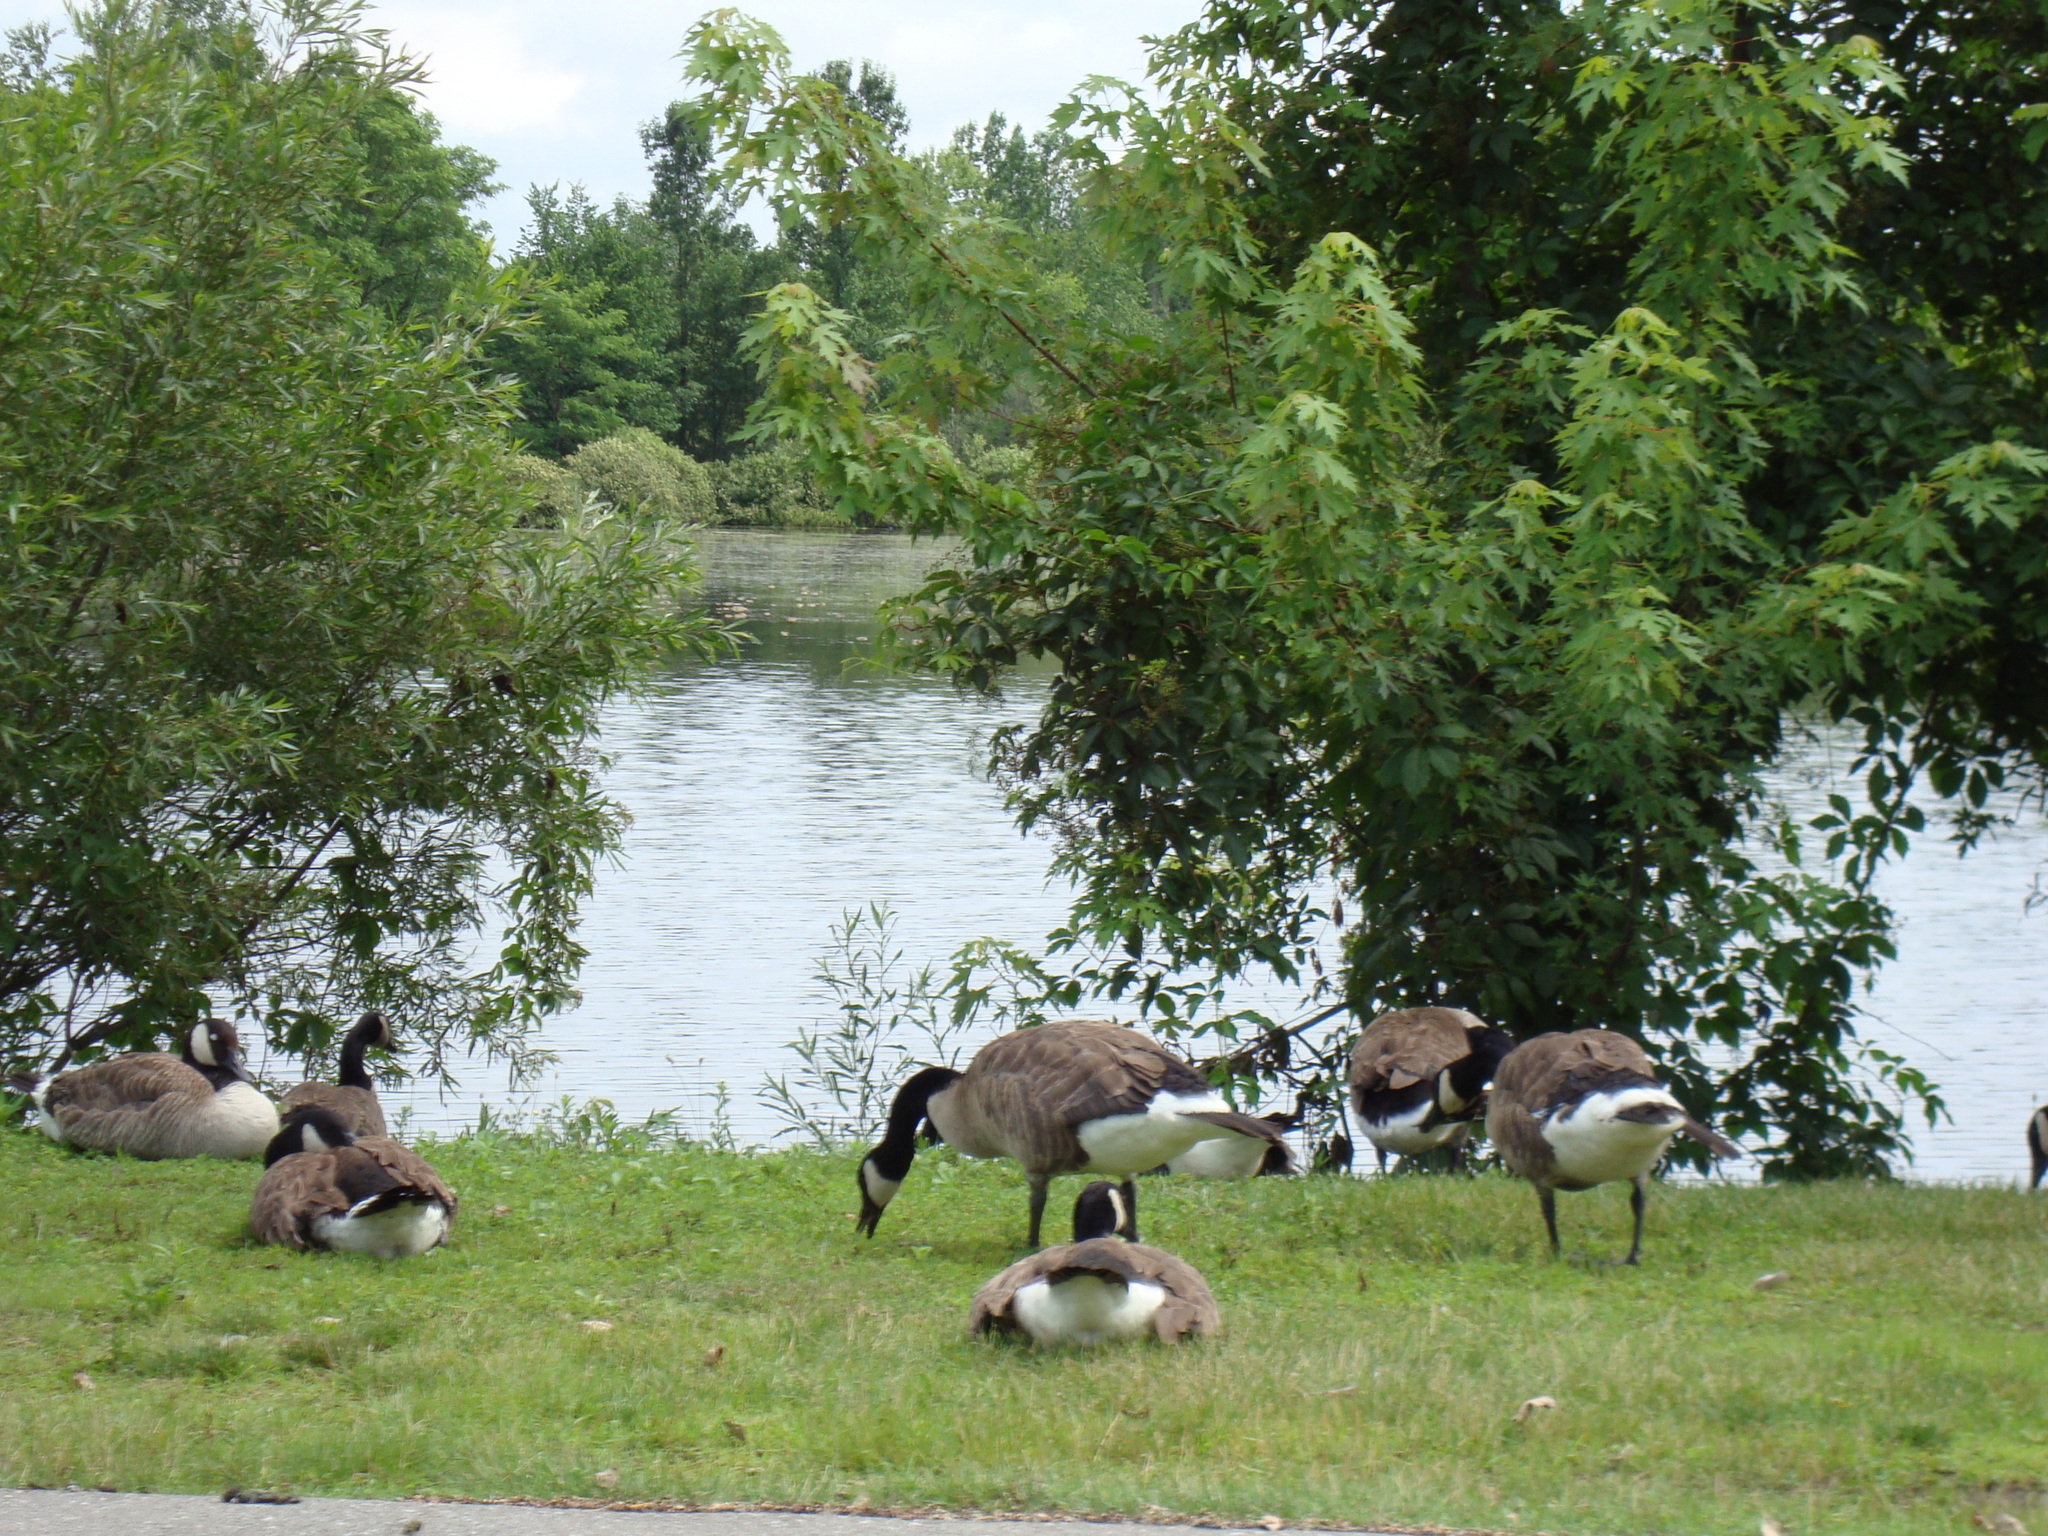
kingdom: Animalia
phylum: Chordata
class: Aves
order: Anseriformes
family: Anatidae
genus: Branta
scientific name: Branta canadensis
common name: Canada goose
